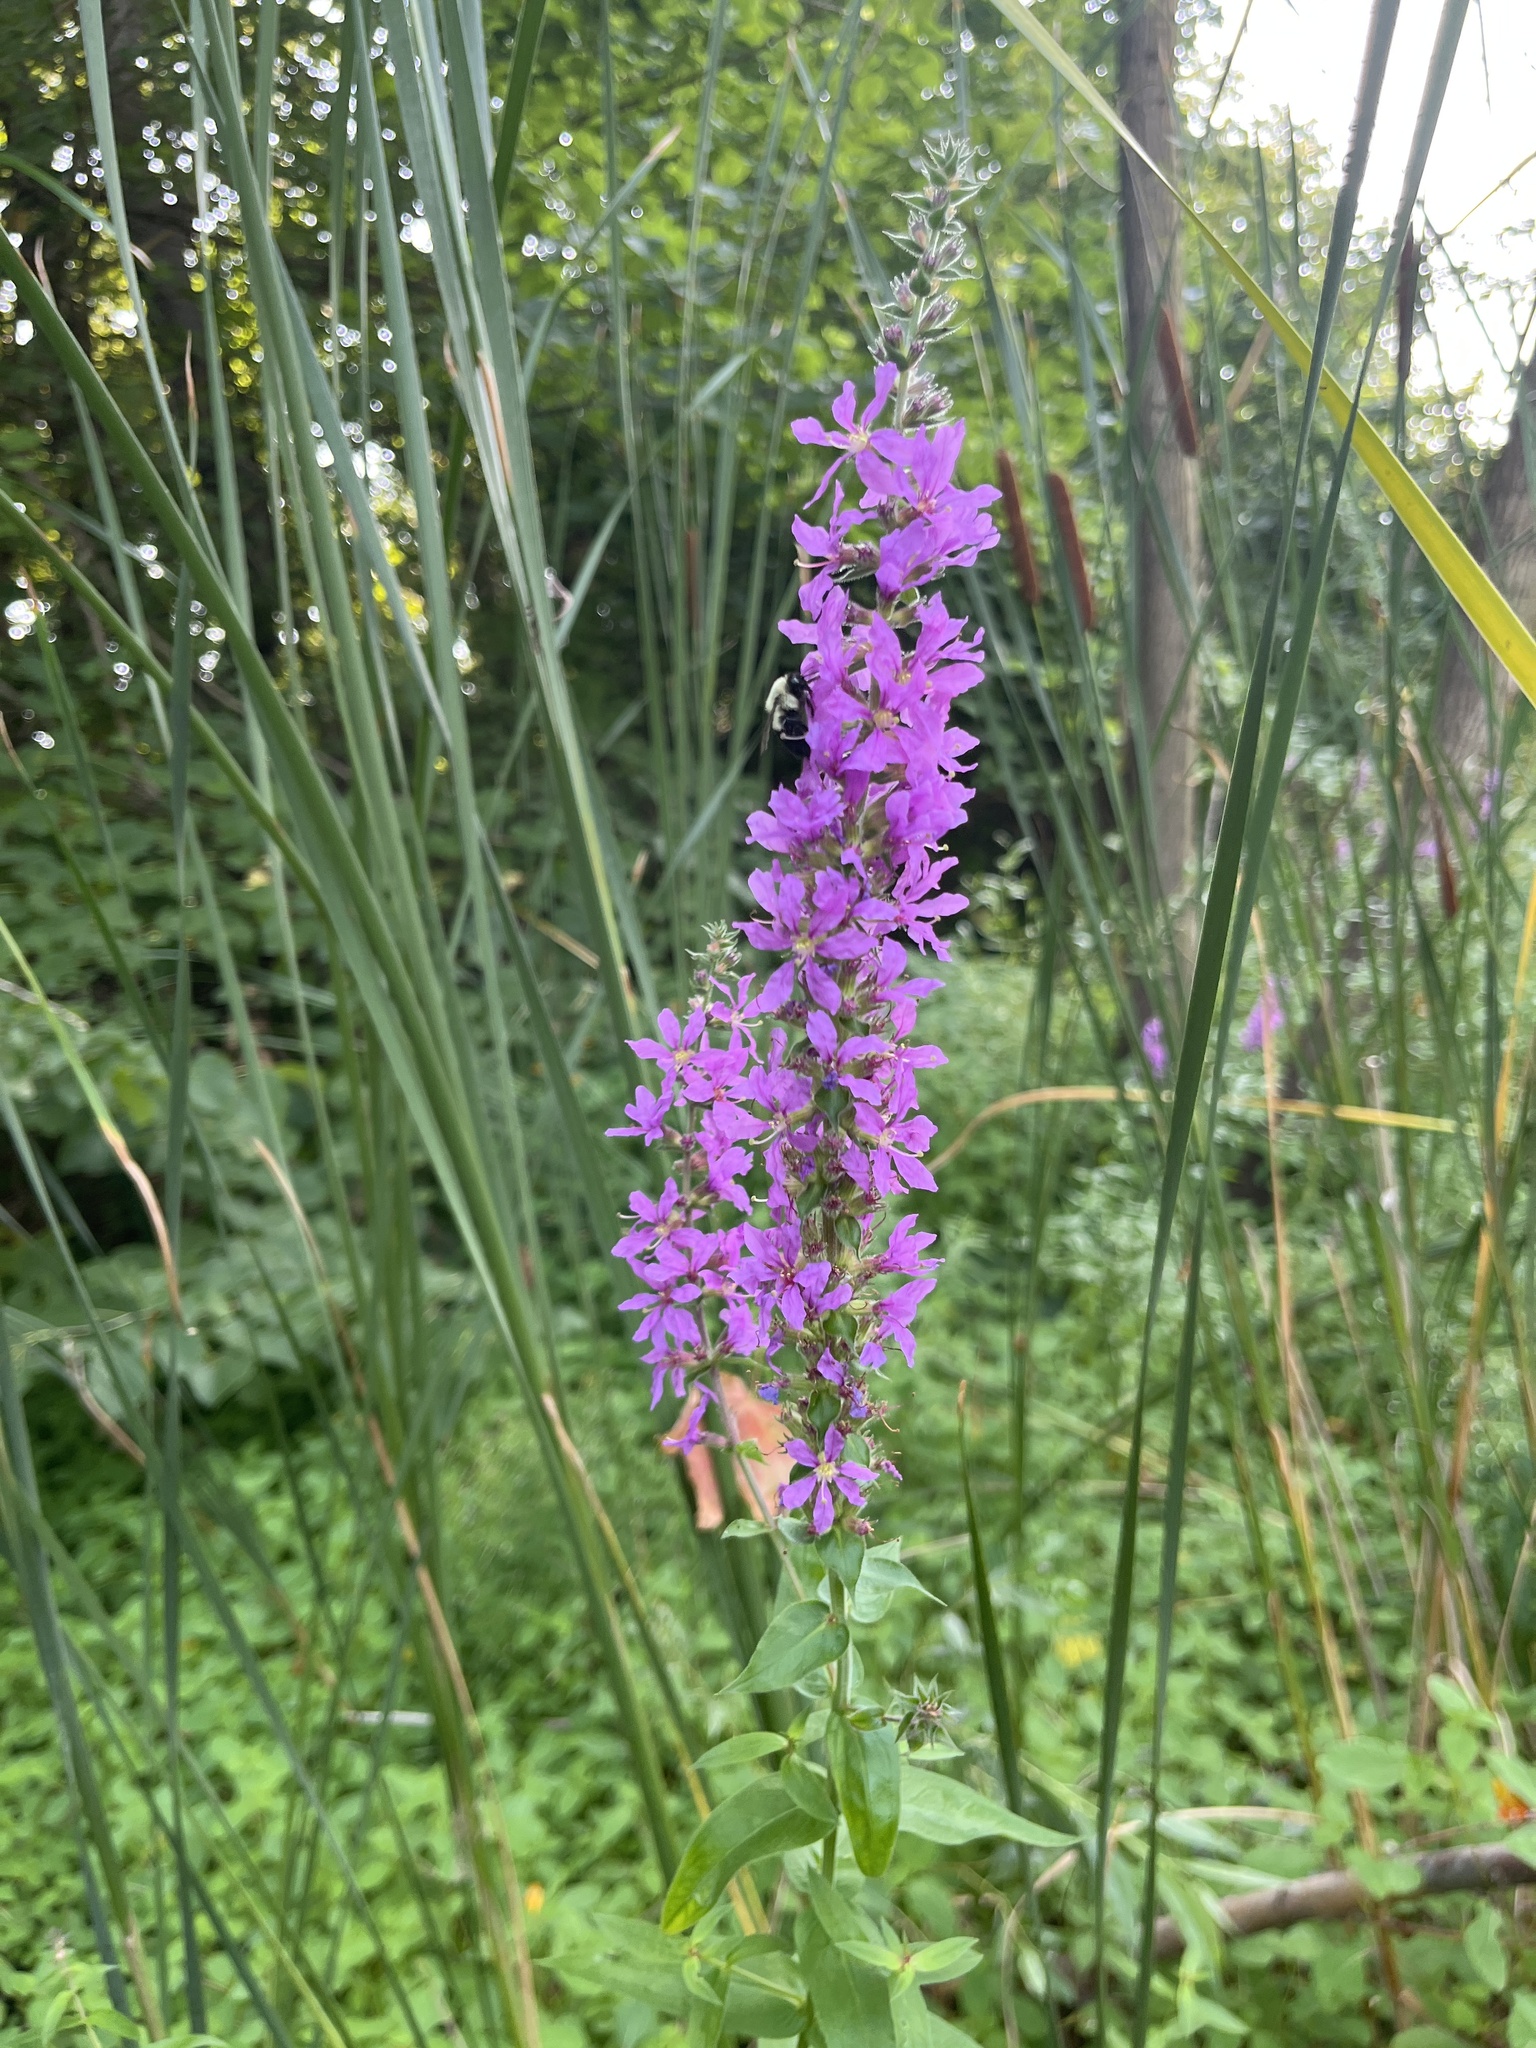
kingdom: Plantae
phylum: Tracheophyta
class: Magnoliopsida
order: Myrtales
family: Lythraceae
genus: Lythrum
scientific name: Lythrum salicaria
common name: Purple loosestrife
